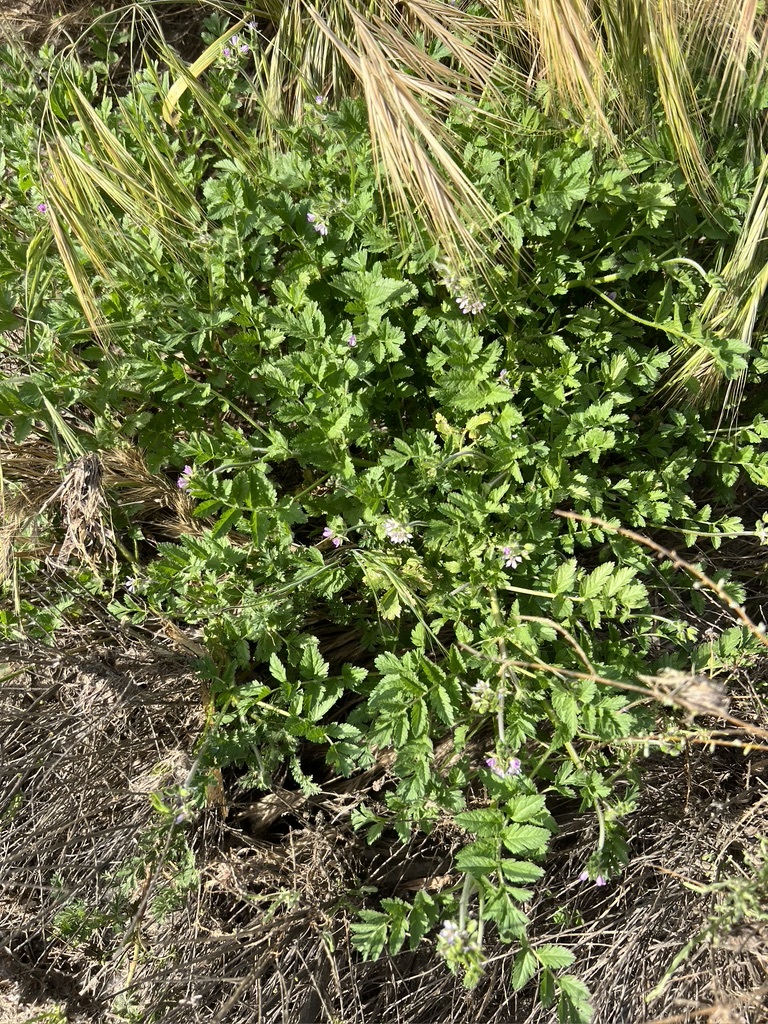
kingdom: Plantae
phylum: Tracheophyta
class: Magnoliopsida
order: Geraniales
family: Geraniaceae
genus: Erodium
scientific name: Erodium moschatum
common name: Musk stork's-bill
